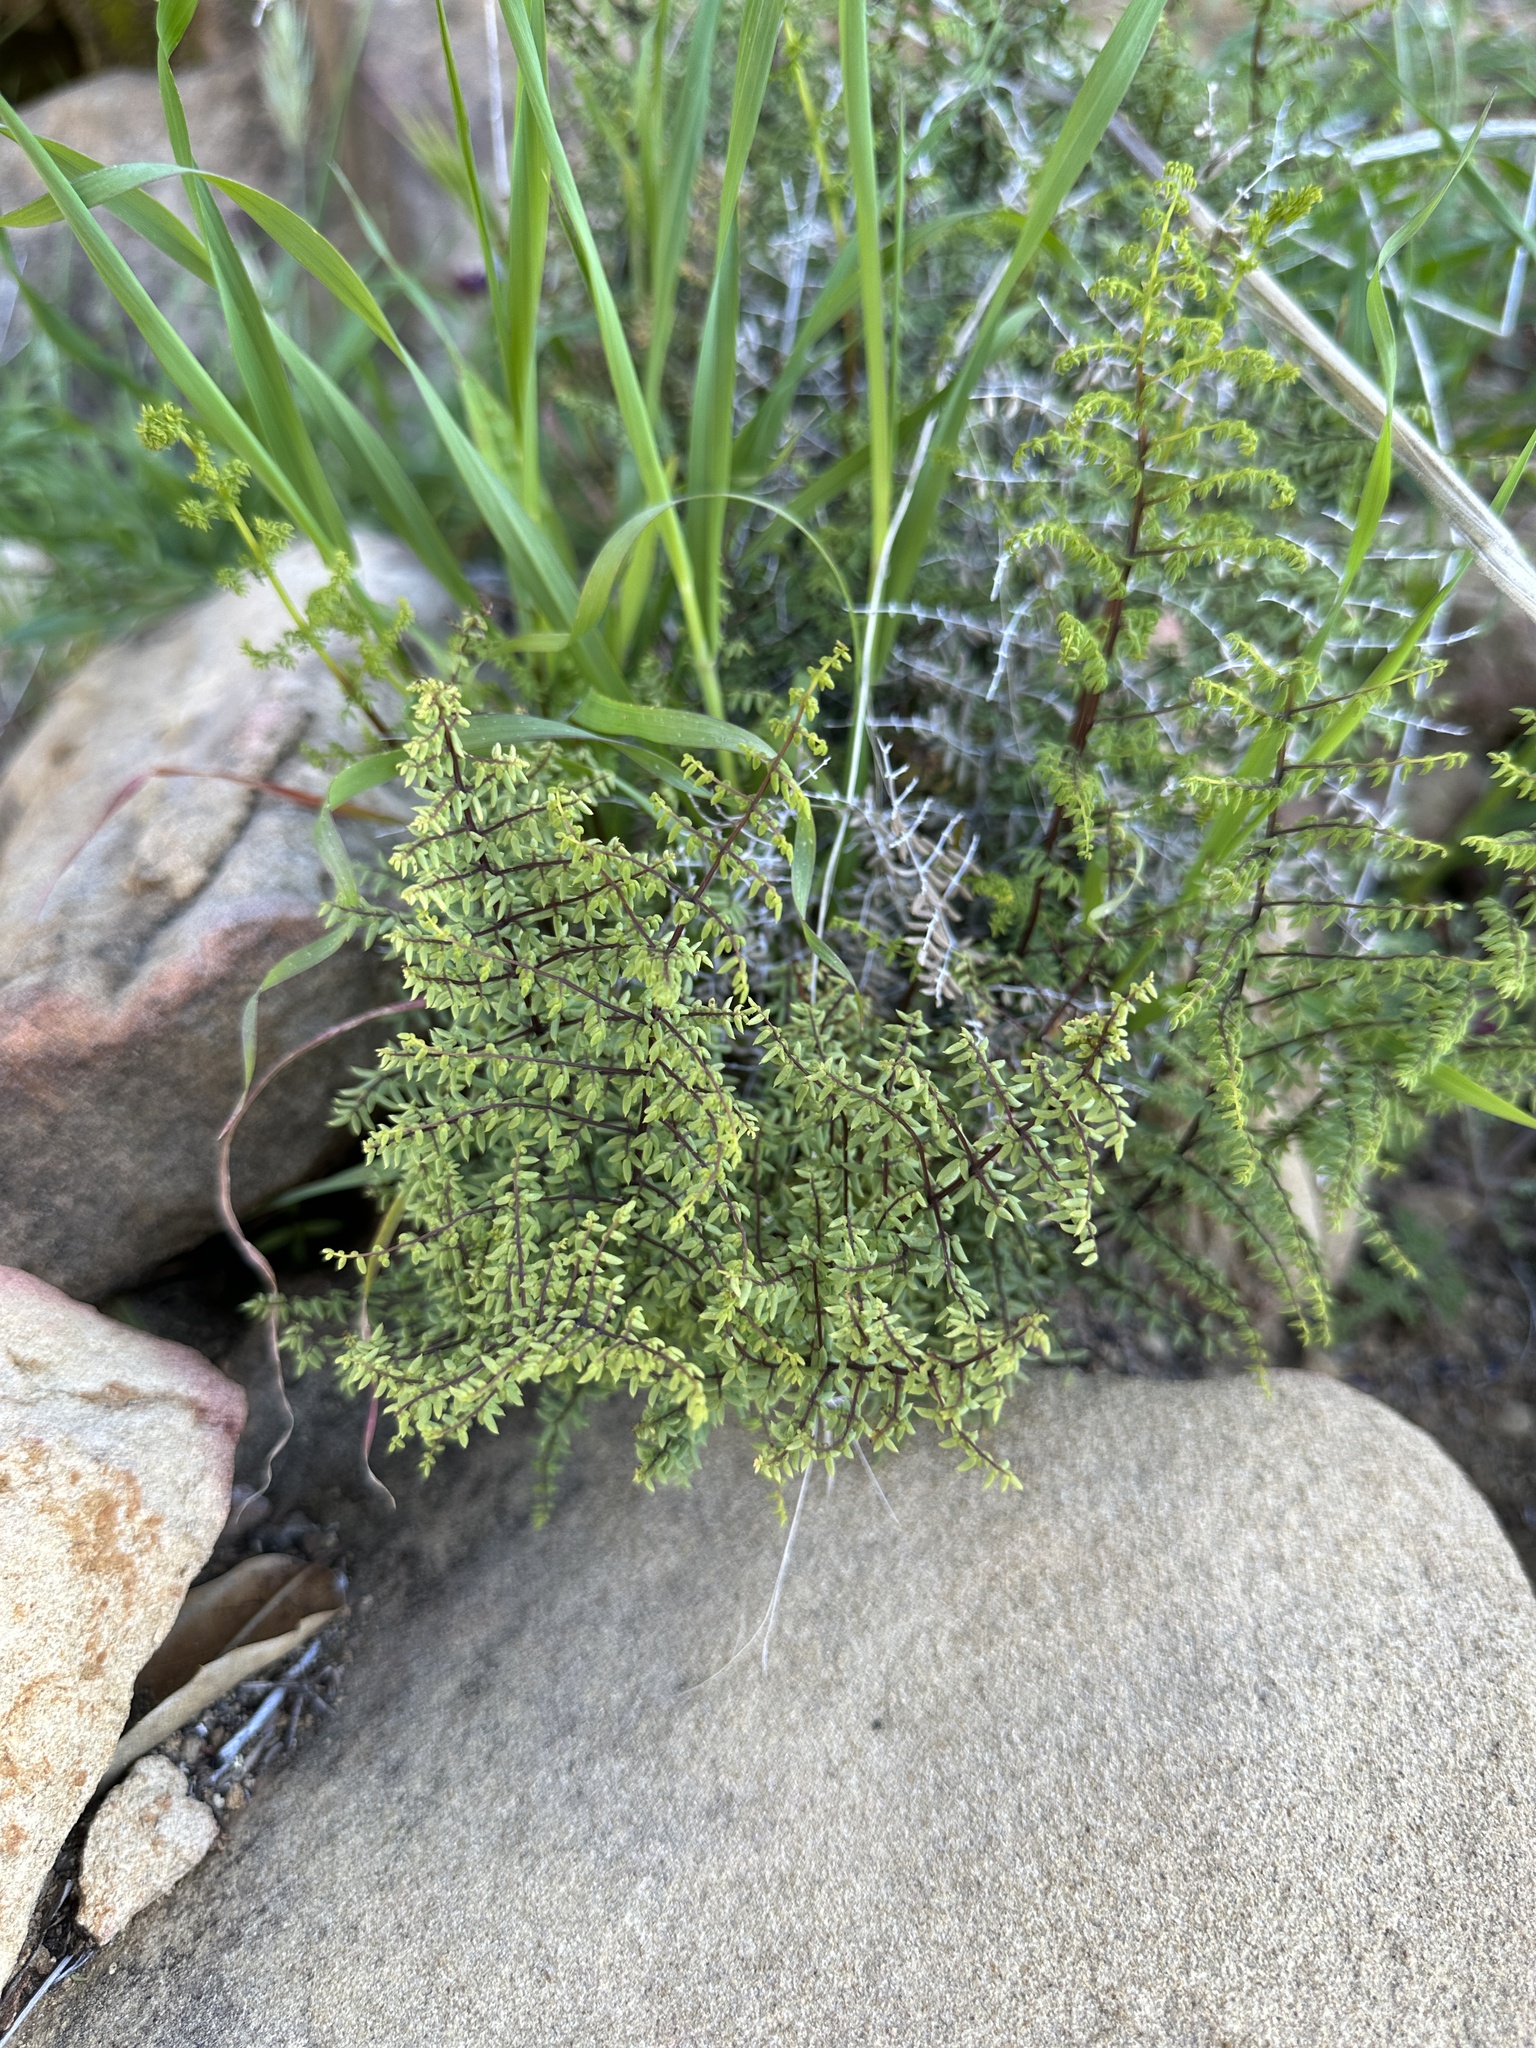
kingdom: Plantae
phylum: Tracheophyta
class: Polypodiopsida
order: Polypodiales
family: Pteridaceae
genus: Pellaea
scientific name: Pellaea mucronata
